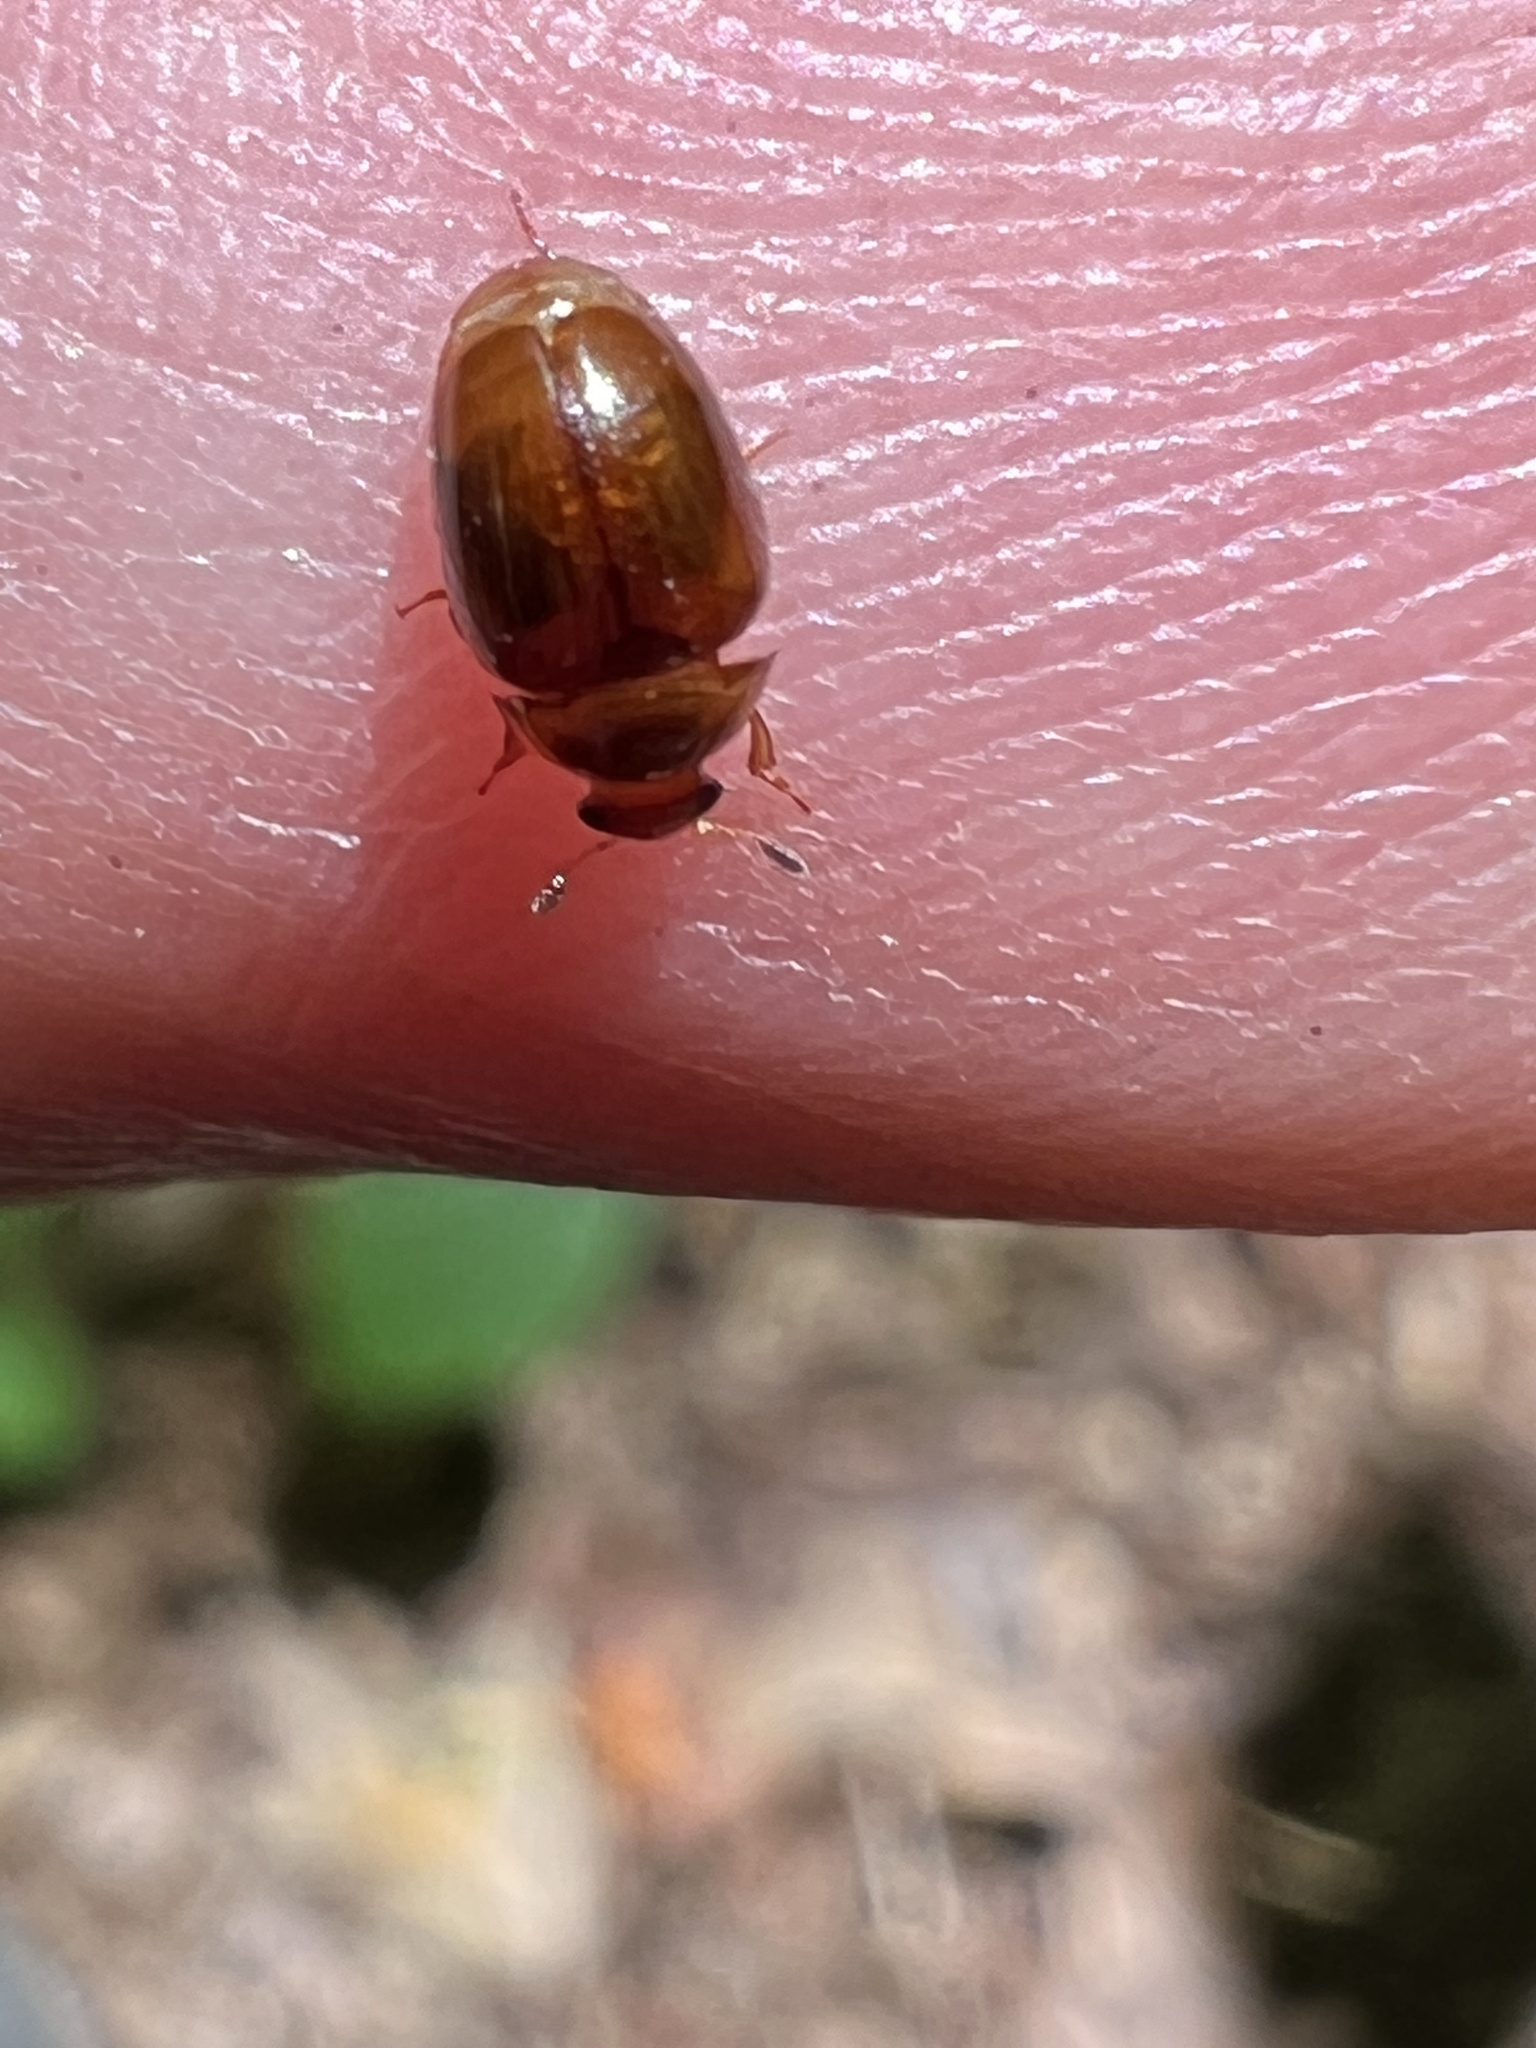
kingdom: Animalia
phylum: Arthropoda
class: Insecta
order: Coleoptera
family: Nitidulidae
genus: Pallodes
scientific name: Pallodes pallidus
